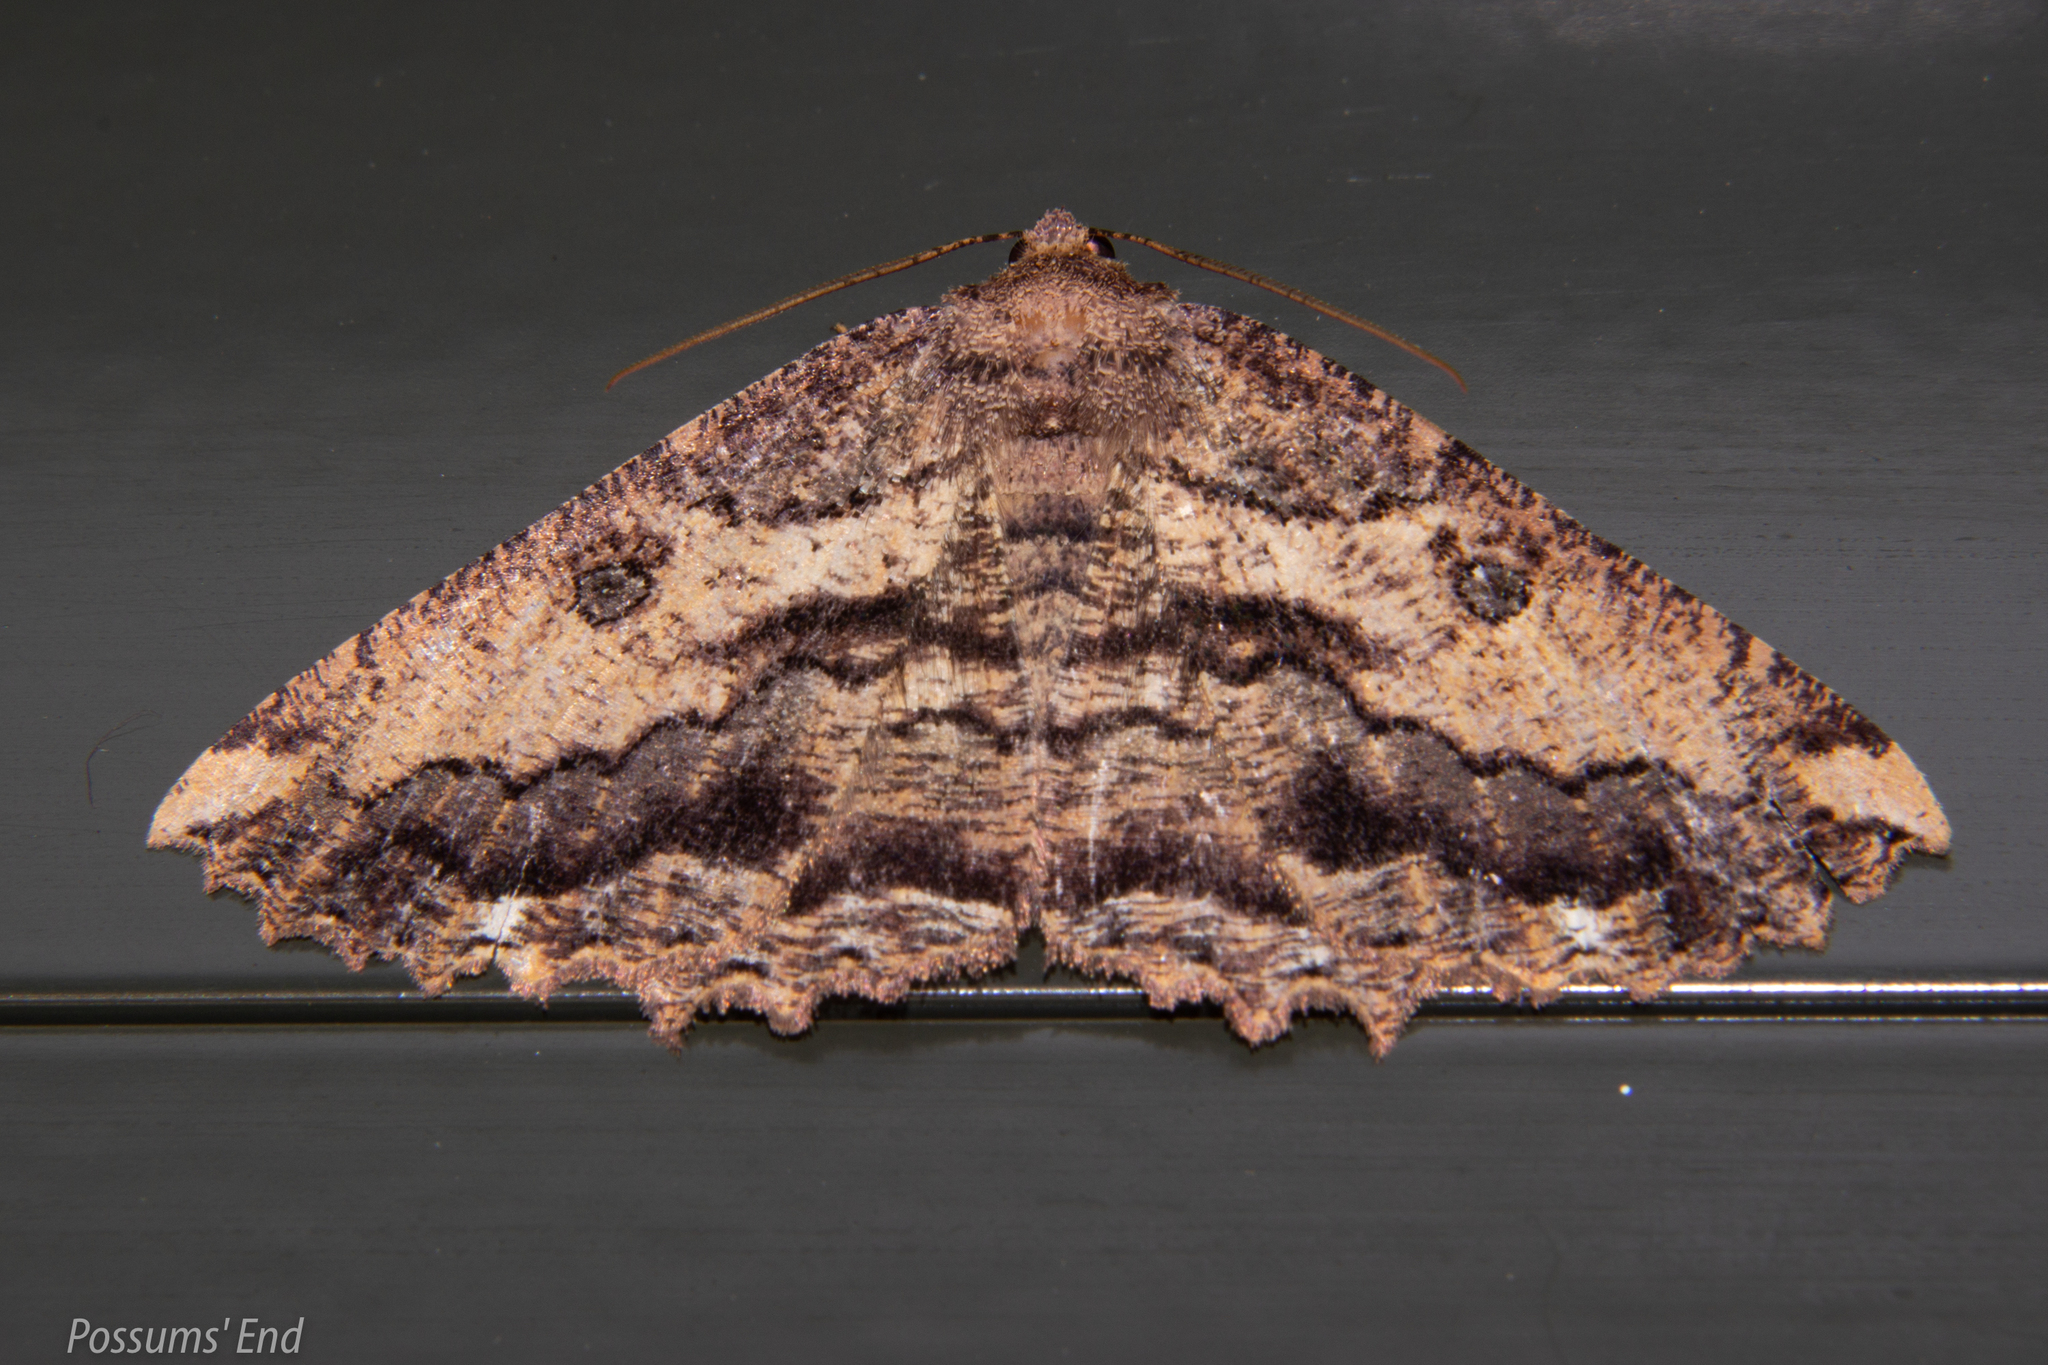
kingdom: Animalia
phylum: Arthropoda
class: Insecta
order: Lepidoptera
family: Geometridae
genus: Gellonia
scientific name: Gellonia pannularia
